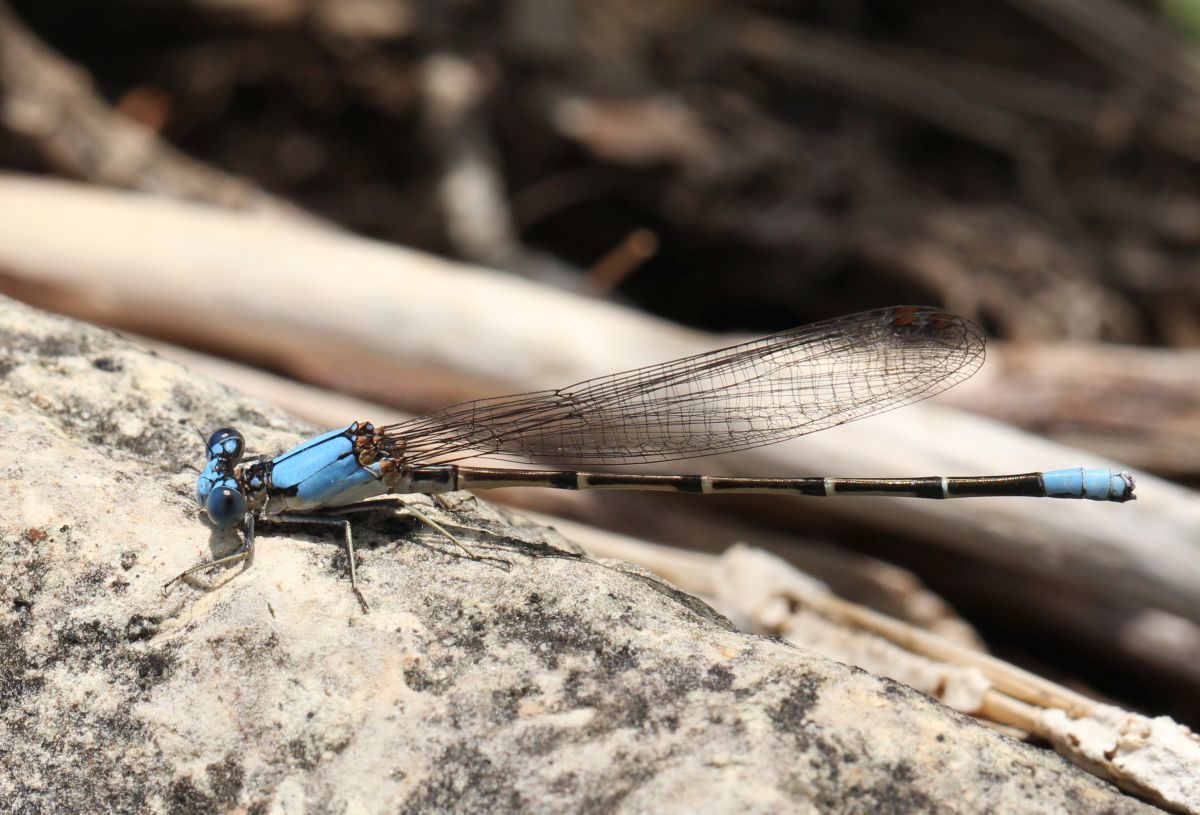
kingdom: Animalia
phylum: Arthropoda
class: Insecta
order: Odonata
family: Coenagrionidae
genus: Argia
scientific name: Argia apicalis
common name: Blue-fronted dancer
